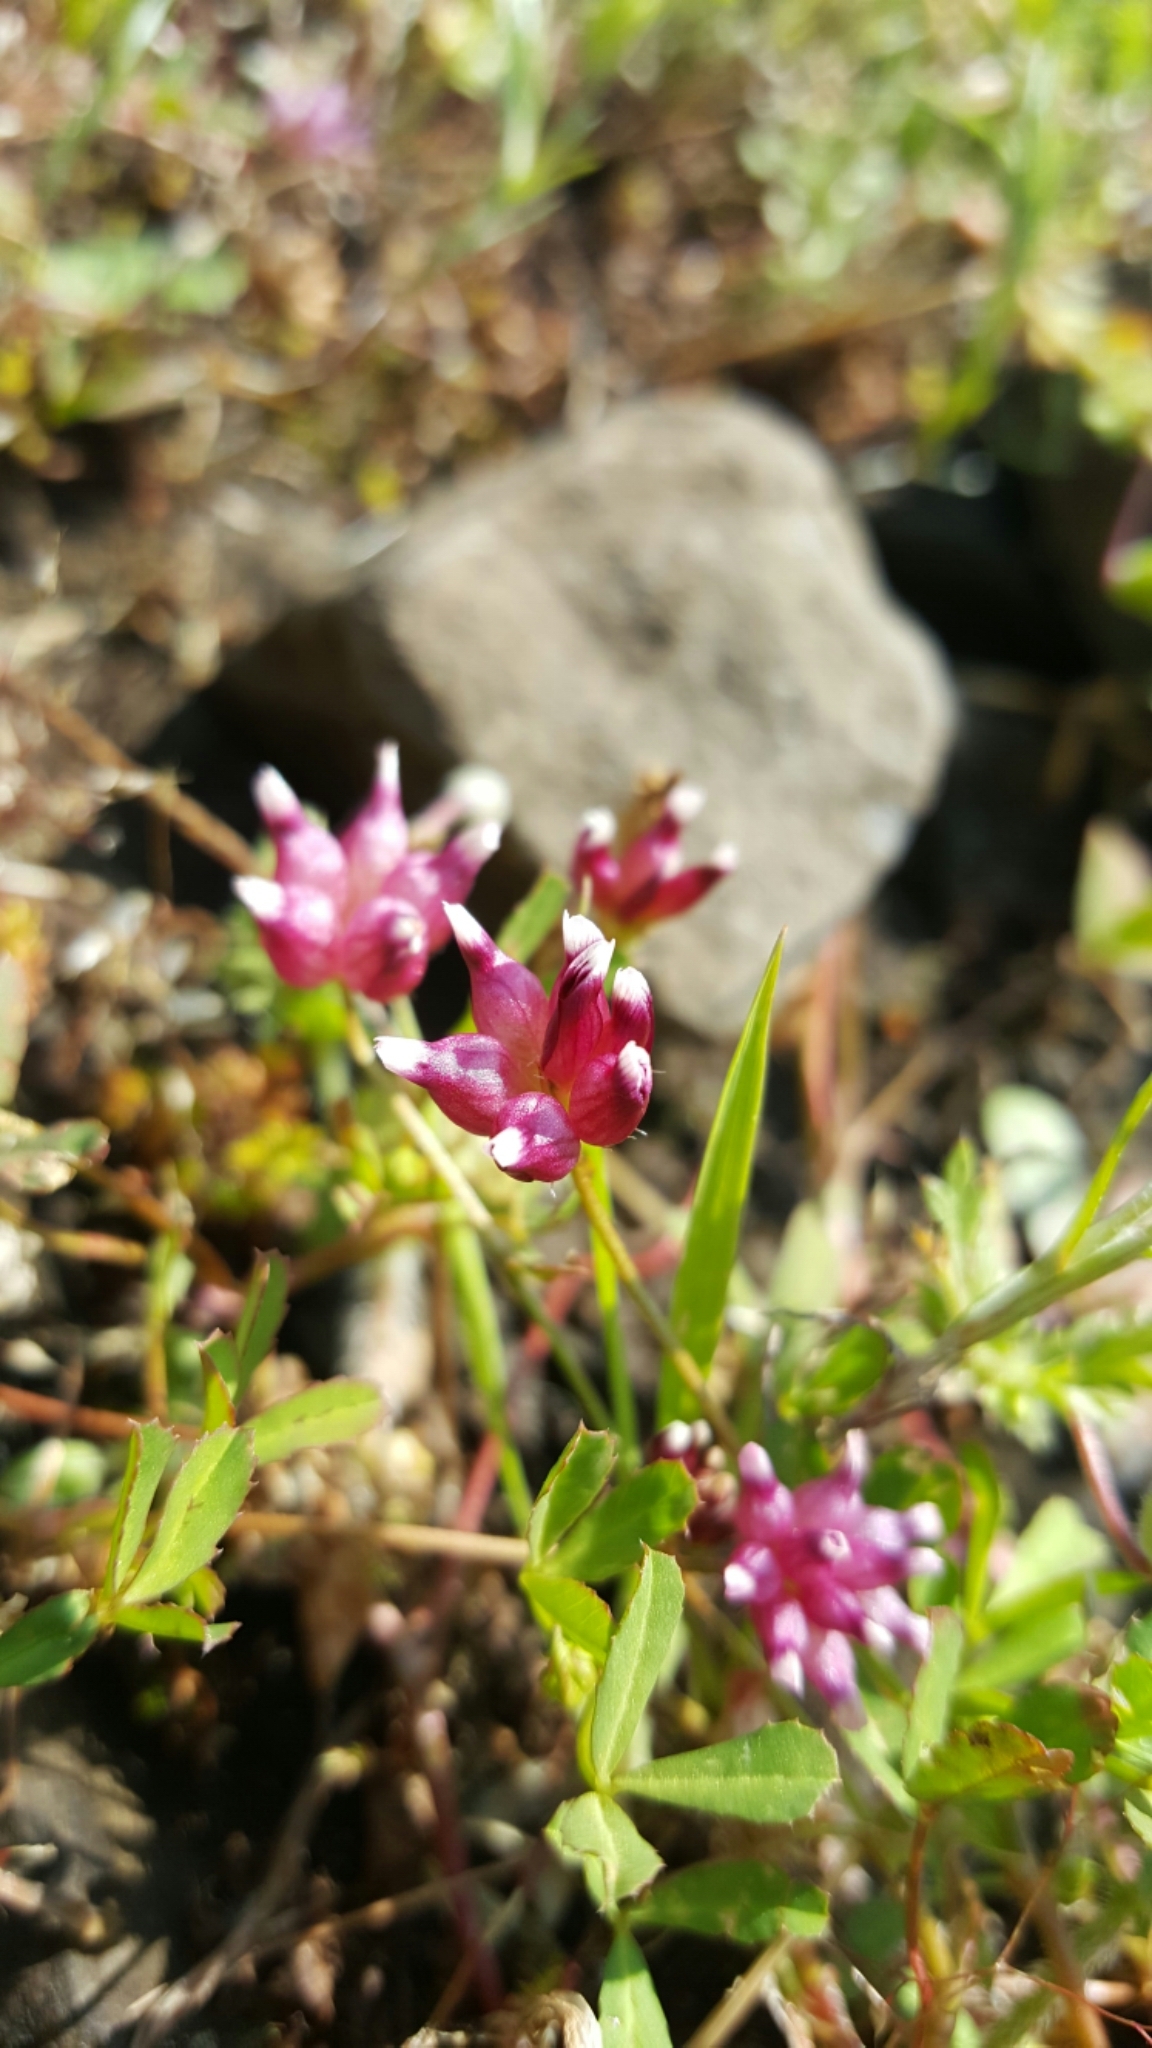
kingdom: Plantae
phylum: Tracheophyta
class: Magnoliopsida
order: Fabales
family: Fabaceae
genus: Trifolium
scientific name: Trifolium depauperatum
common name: Poverty clover
